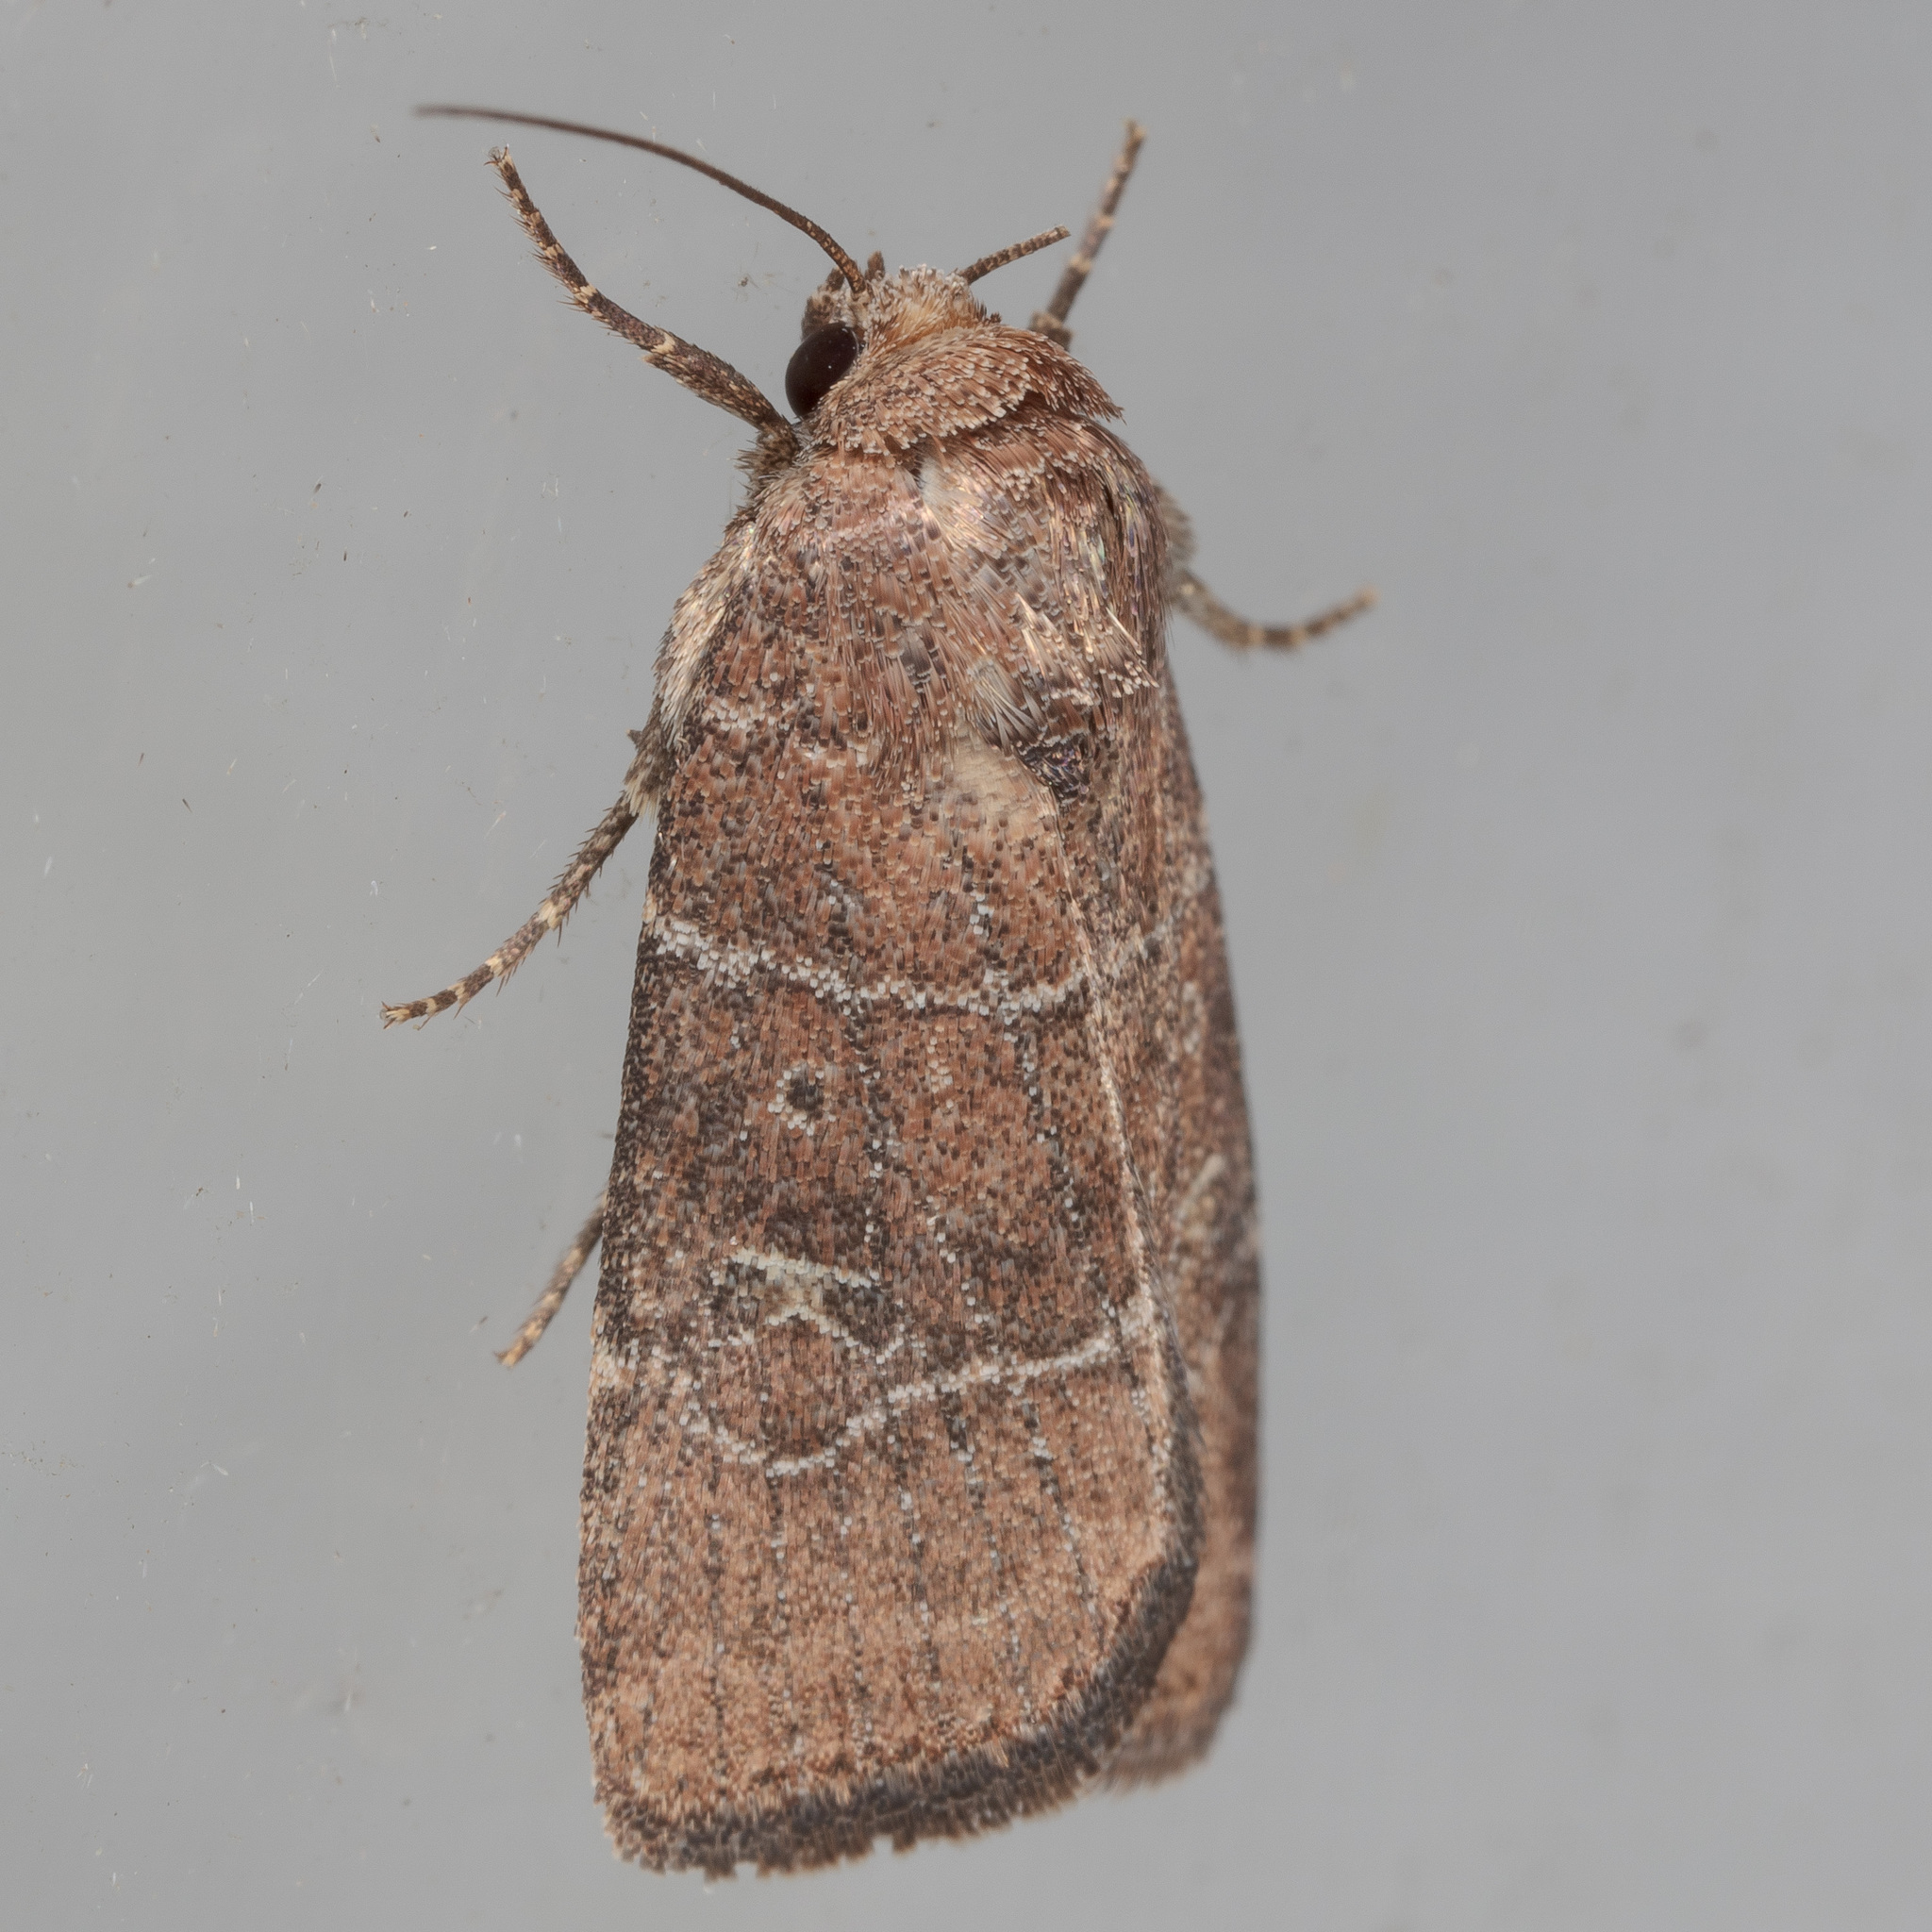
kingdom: Animalia
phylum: Arthropoda
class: Insecta
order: Lepidoptera
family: Noctuidae
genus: Elaphria
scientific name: Elaphria grata
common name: Grateful midget moth
